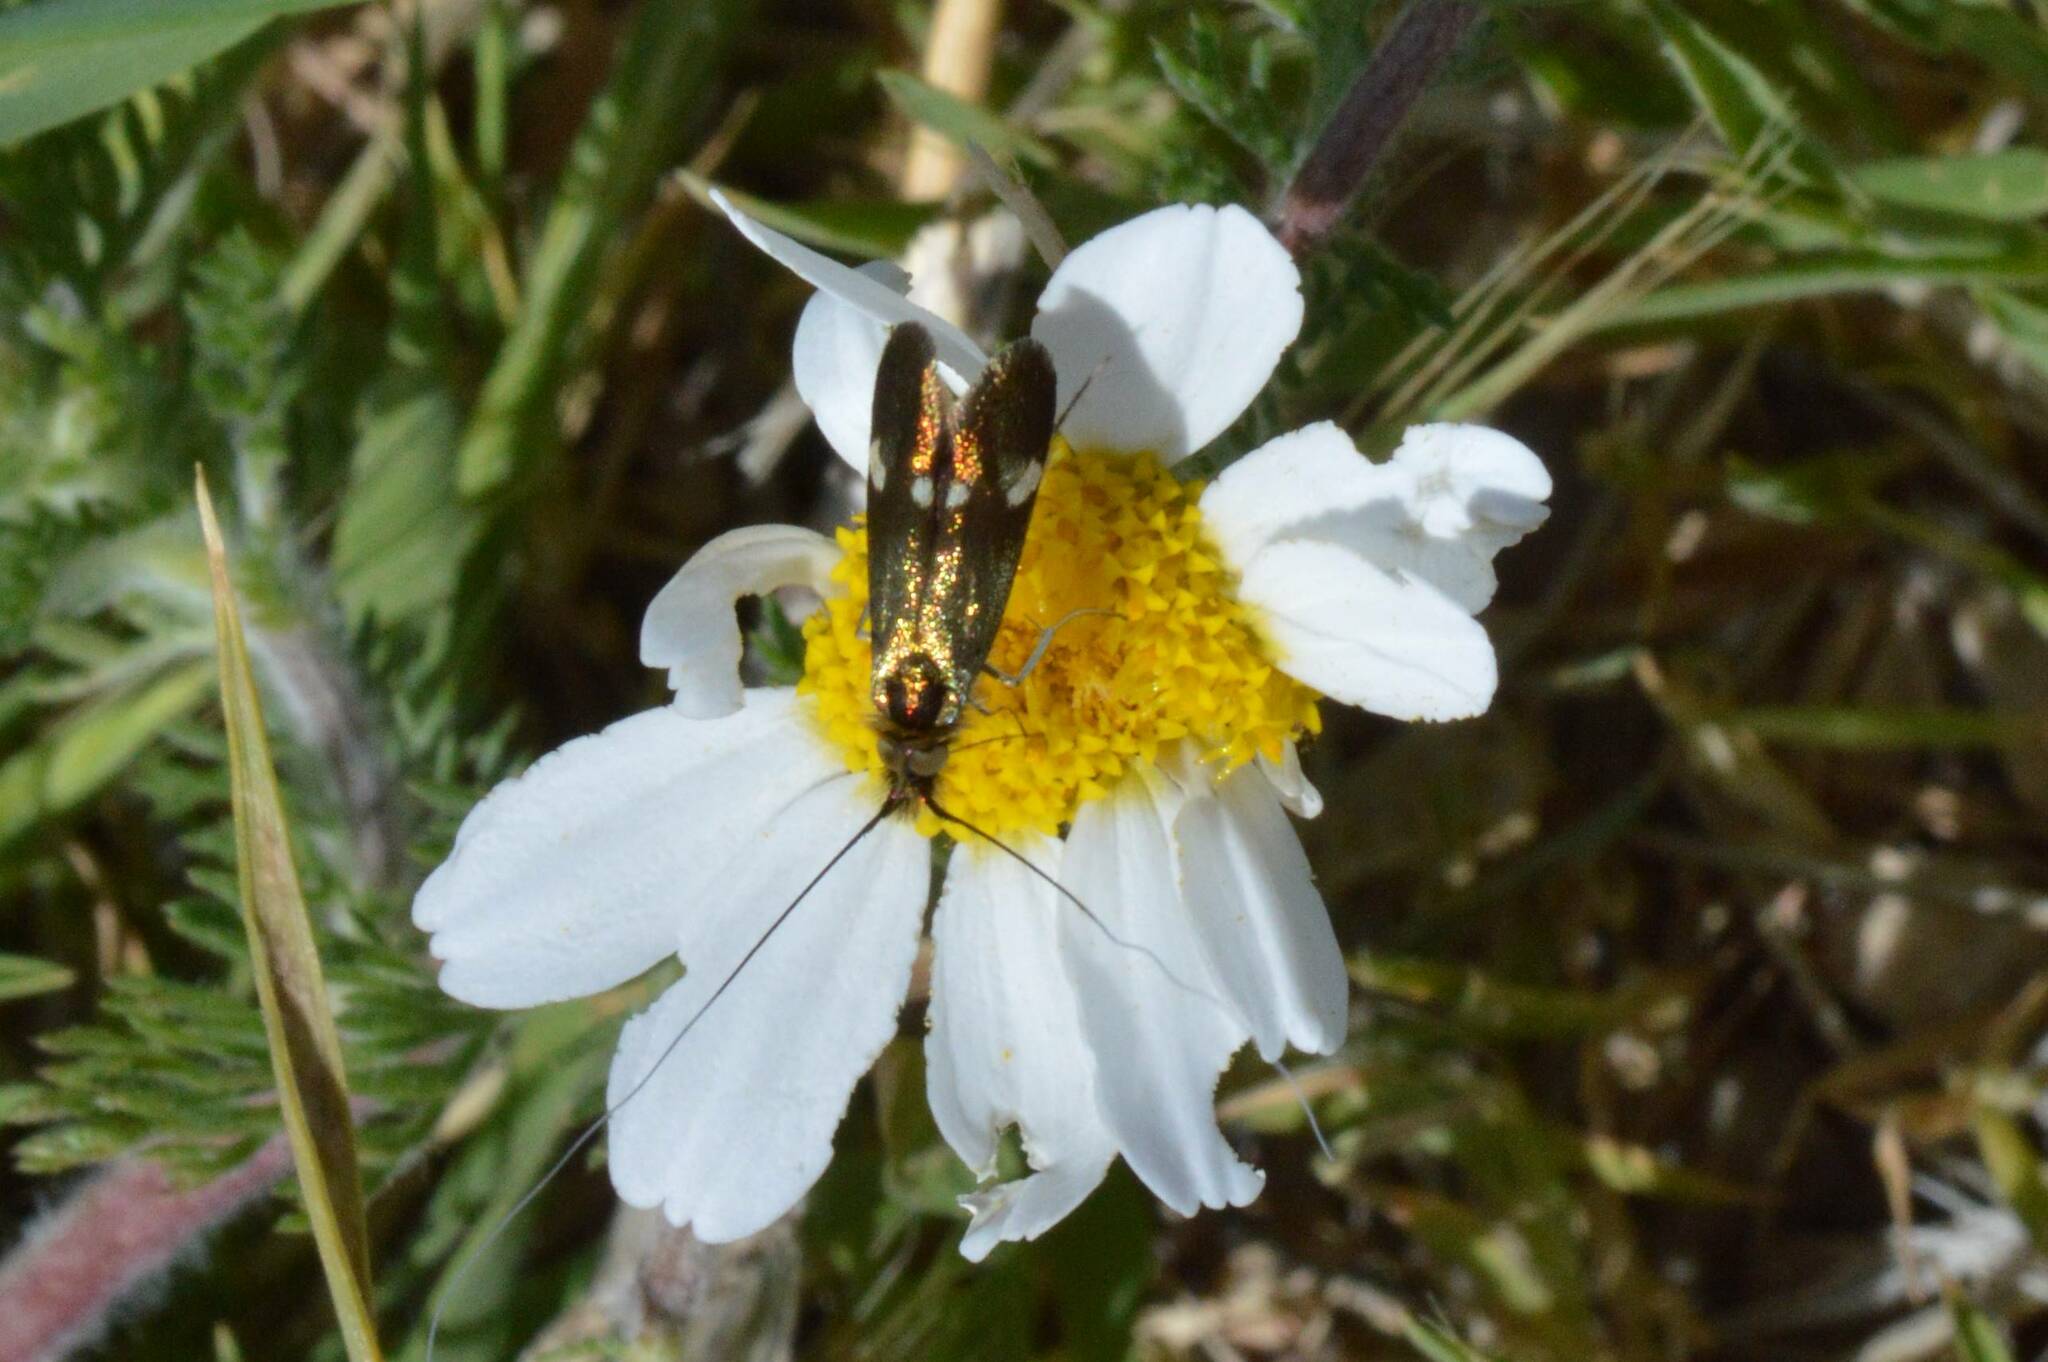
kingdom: Animalia
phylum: Arthropoda
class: Insecta
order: Lepidoptera
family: Adelidae
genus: Nemophora
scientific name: Nemophora raddaella
